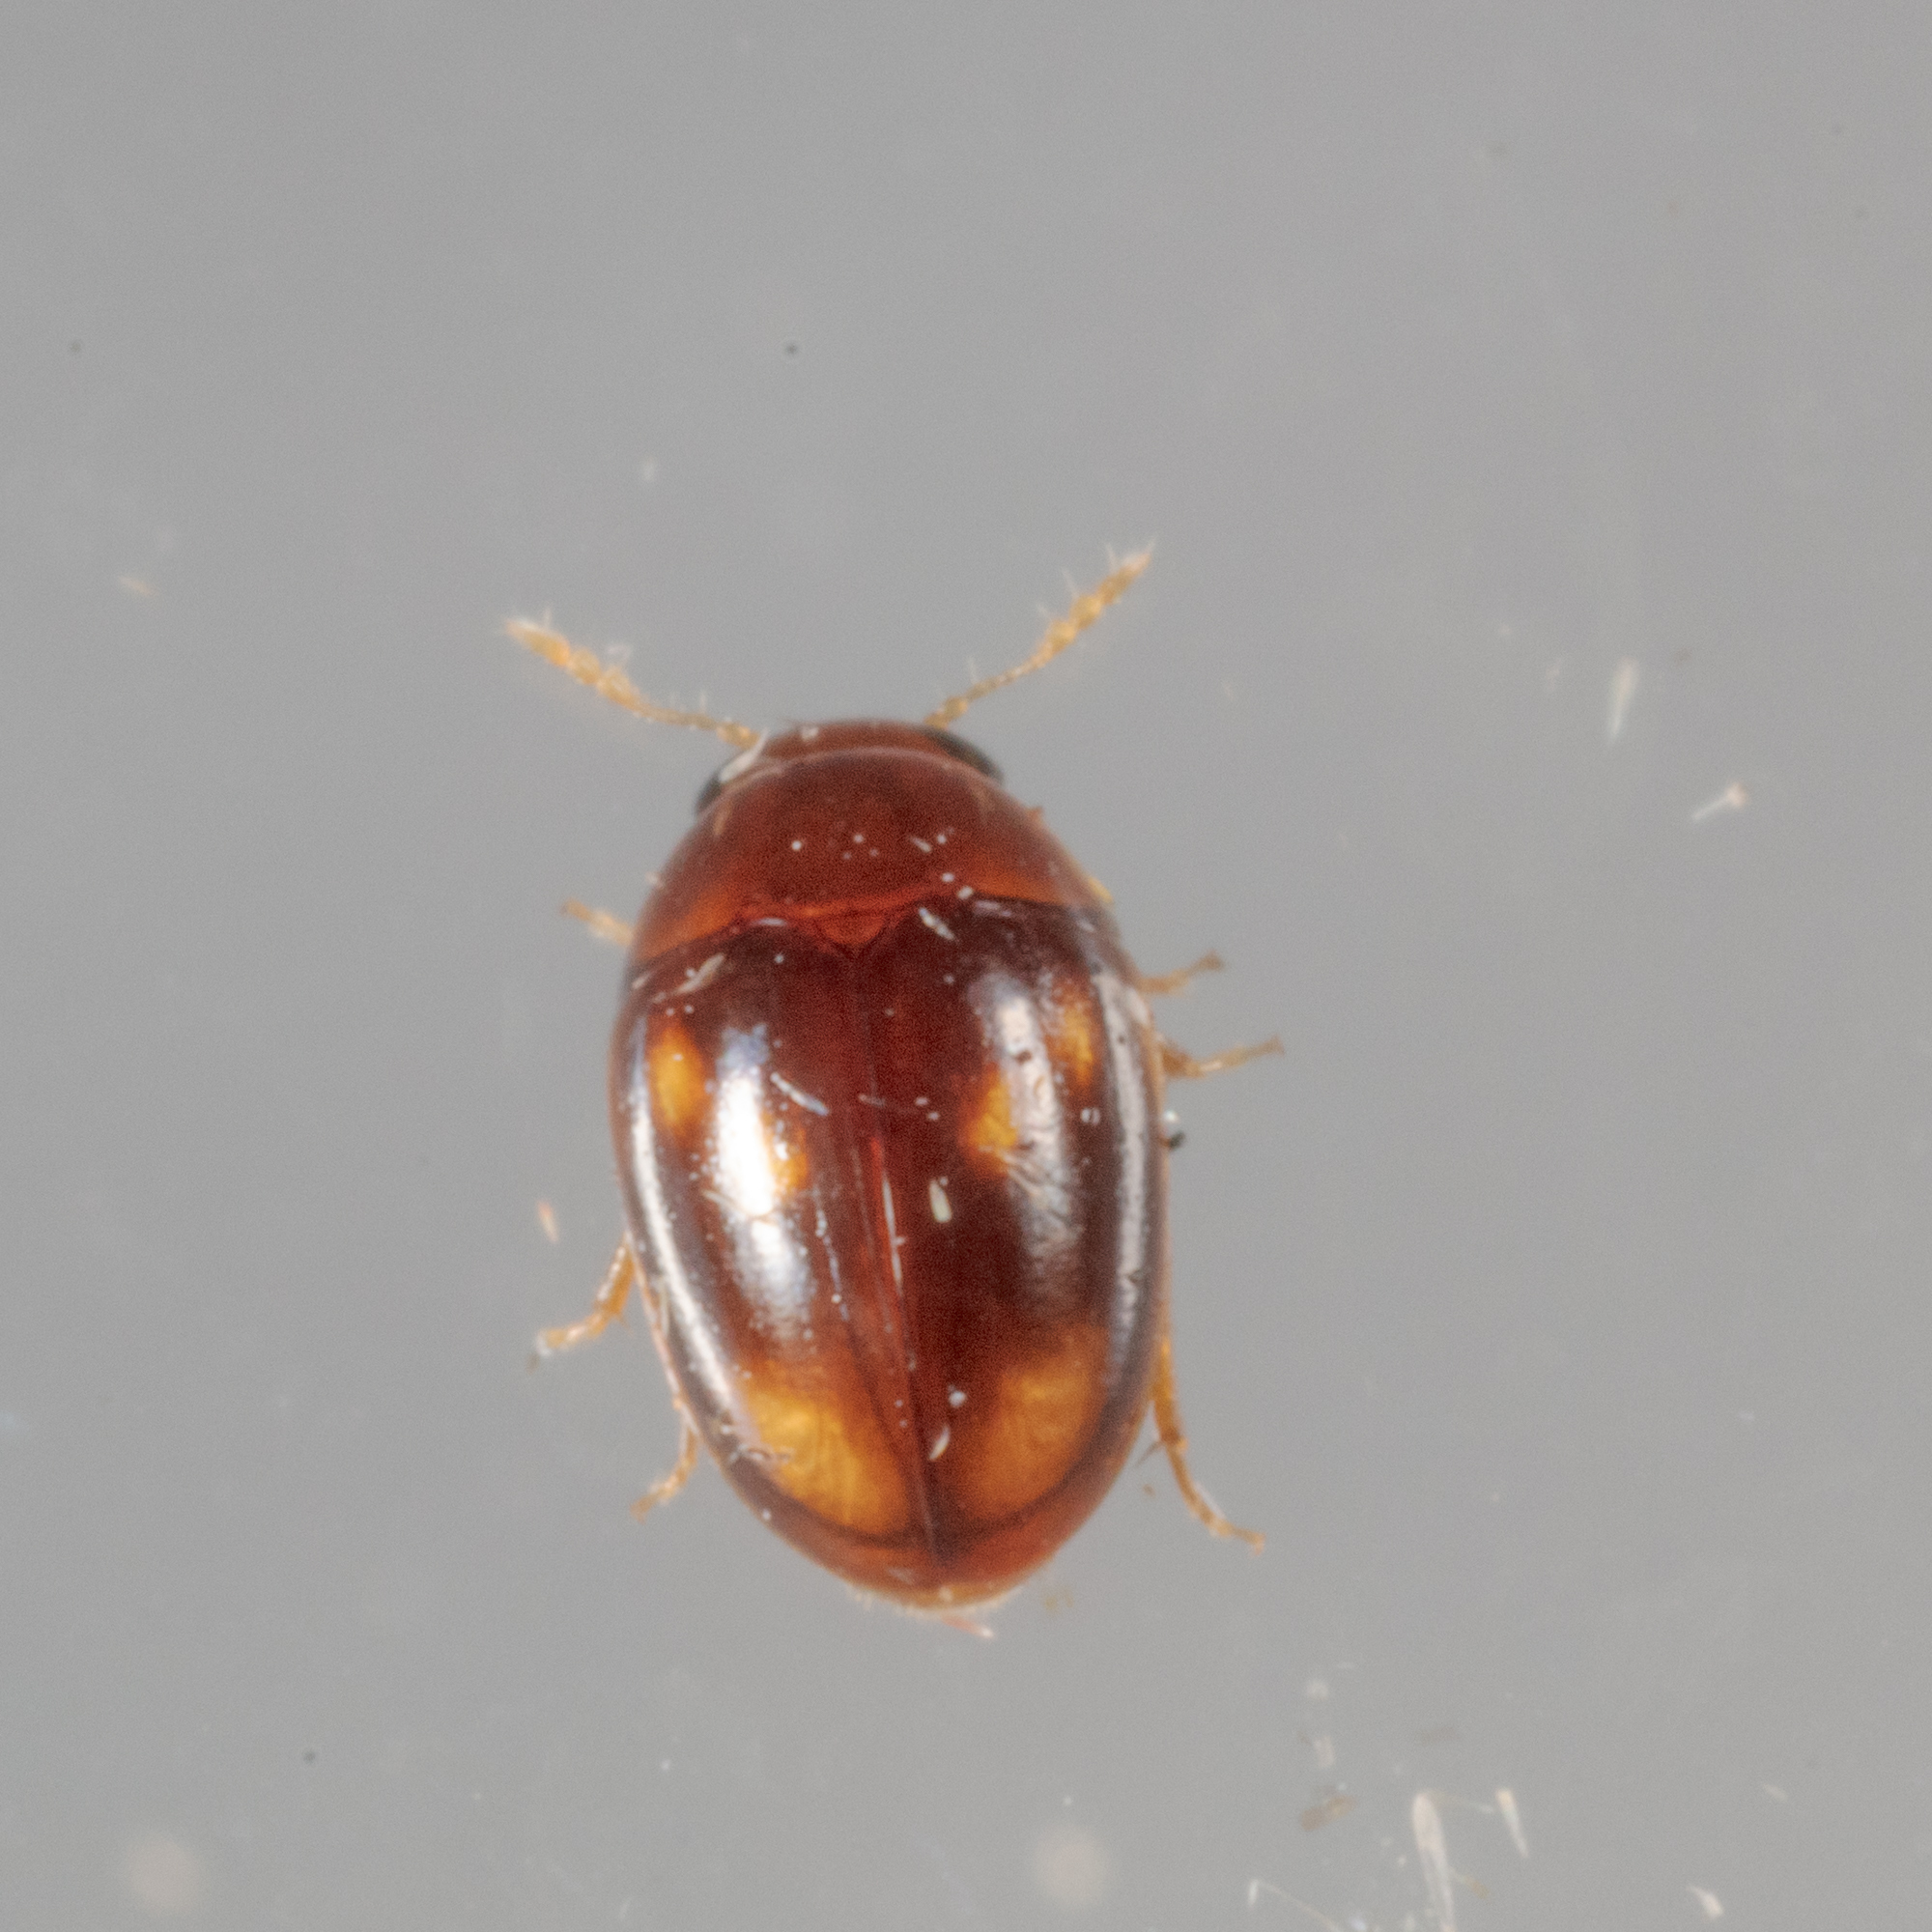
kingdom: Animalia
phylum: Arthropoda
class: Insecta
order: Coleoptera
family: Phalacridae
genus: Neolitochrus
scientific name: Neolitochrus
